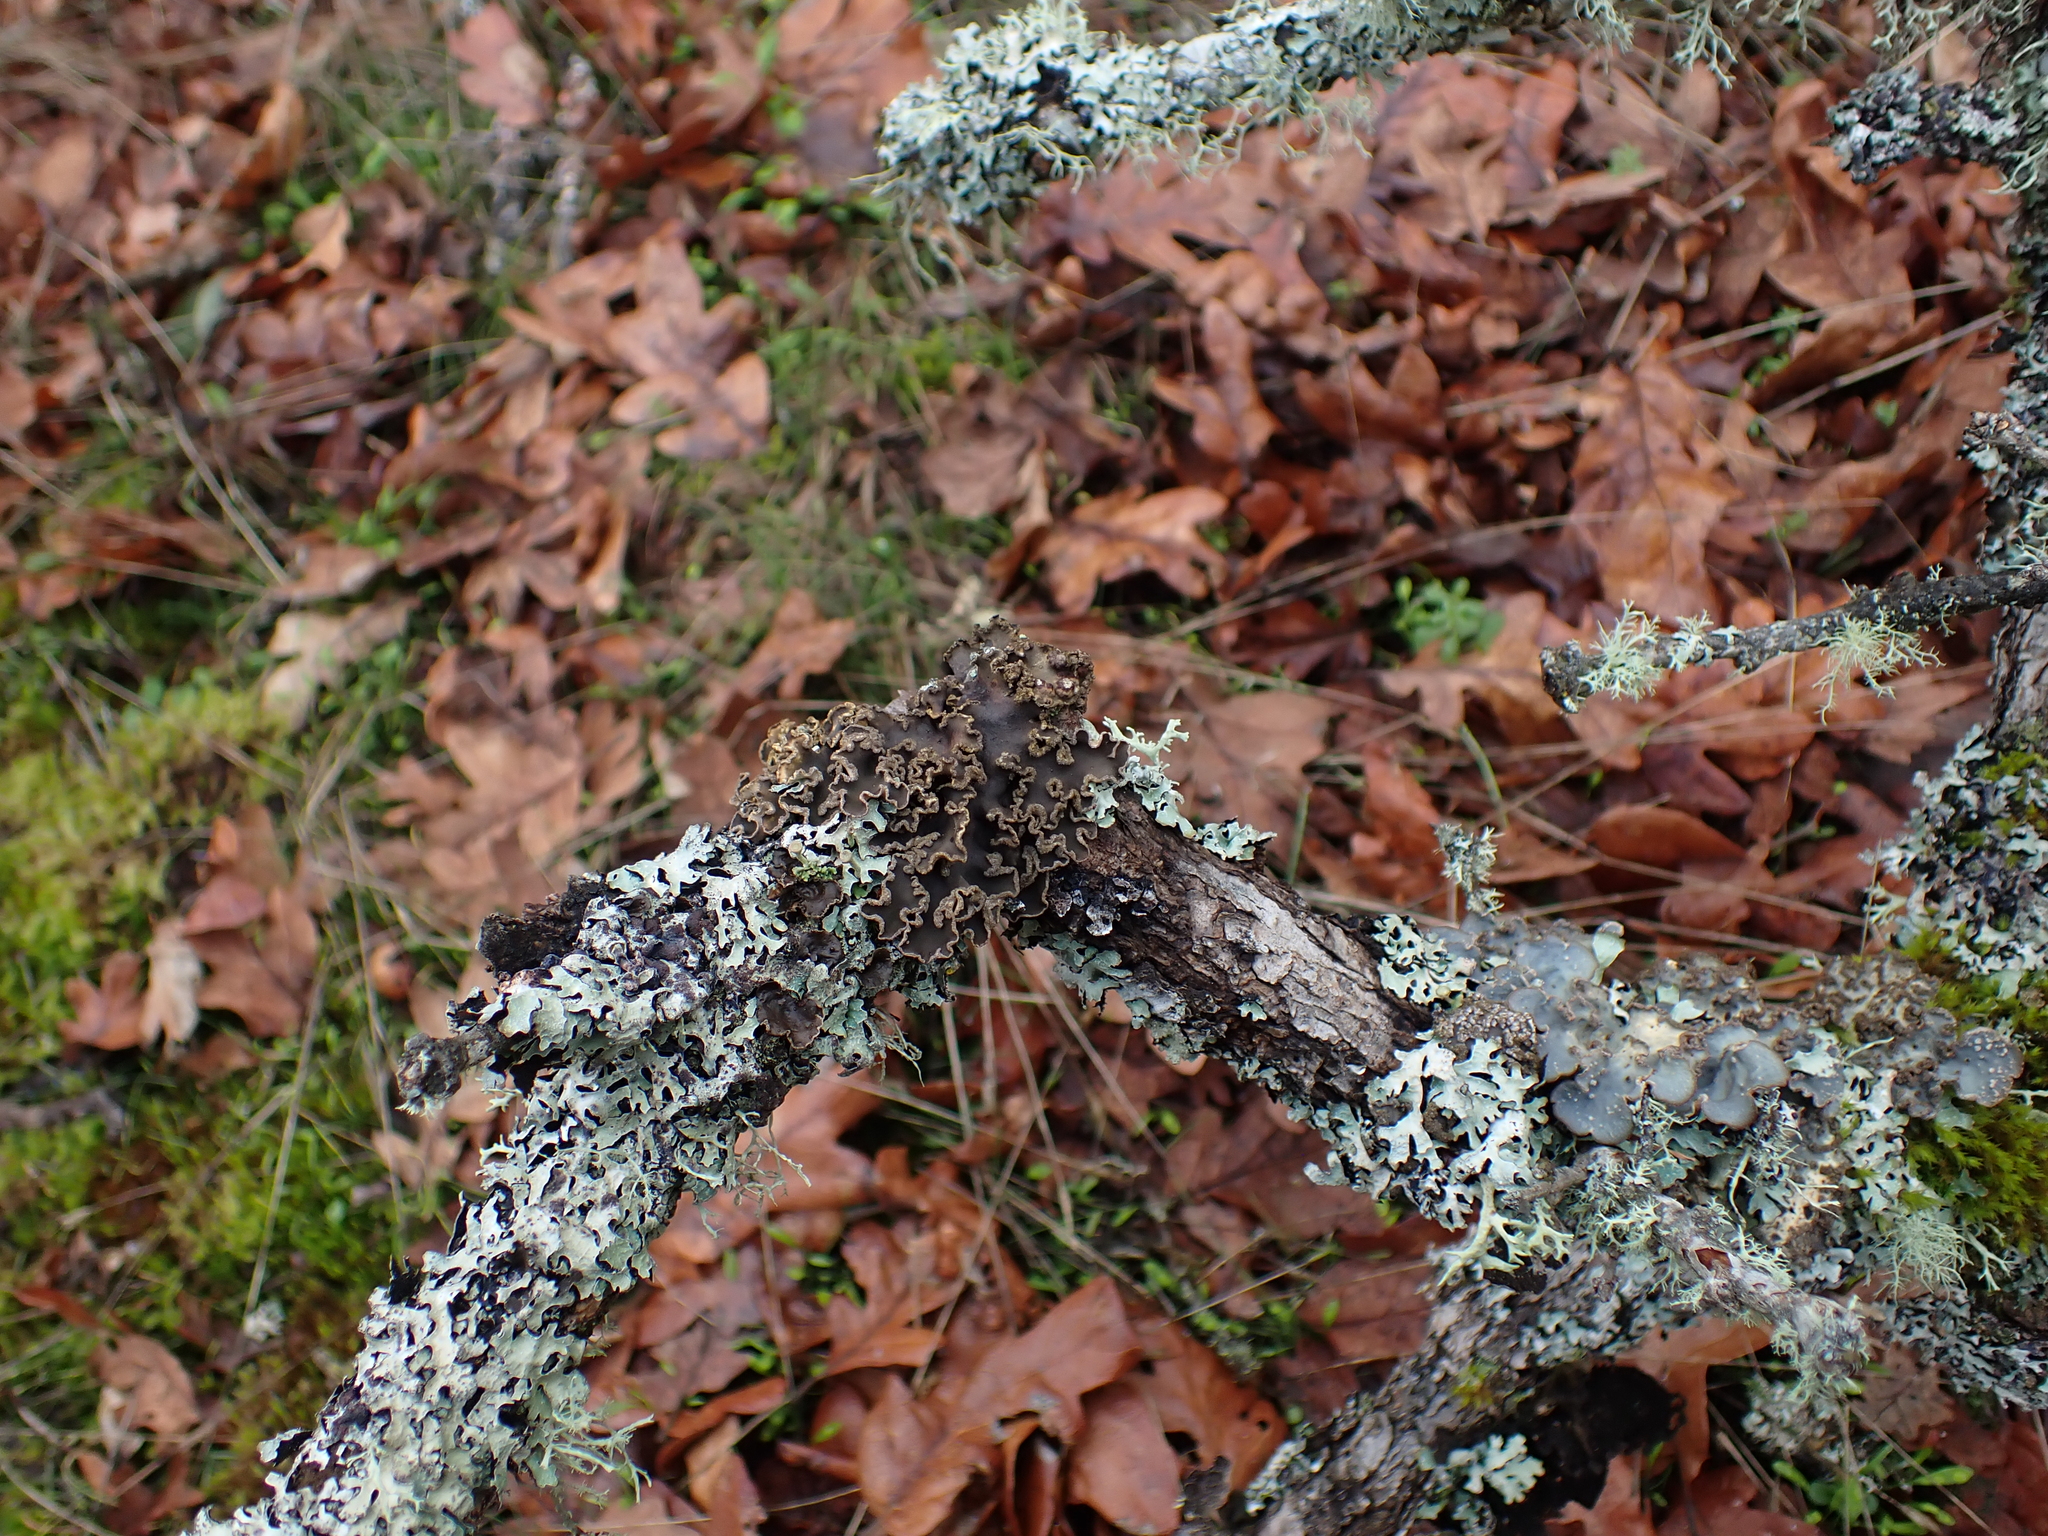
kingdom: Fungi
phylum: Ascomycota
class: Lecanoromycetes
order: Peltigerales
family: Peltigeraceae
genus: Peltigera
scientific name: Peltigera collina
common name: Gritty tree pelt lichen
